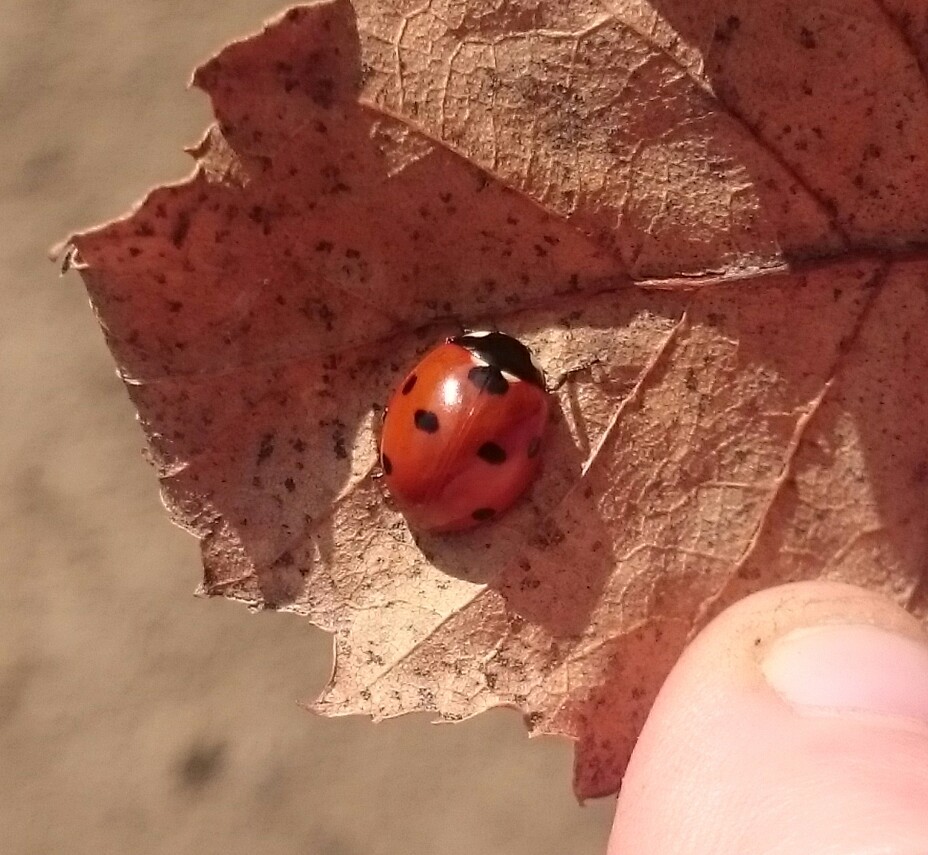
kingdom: Animalia
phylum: Arthropoda
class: Insecta
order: Coleoptera
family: Coccinellidae
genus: Coccinella
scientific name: Coccinella septempunctata
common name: Sevenspotted lady beetle
